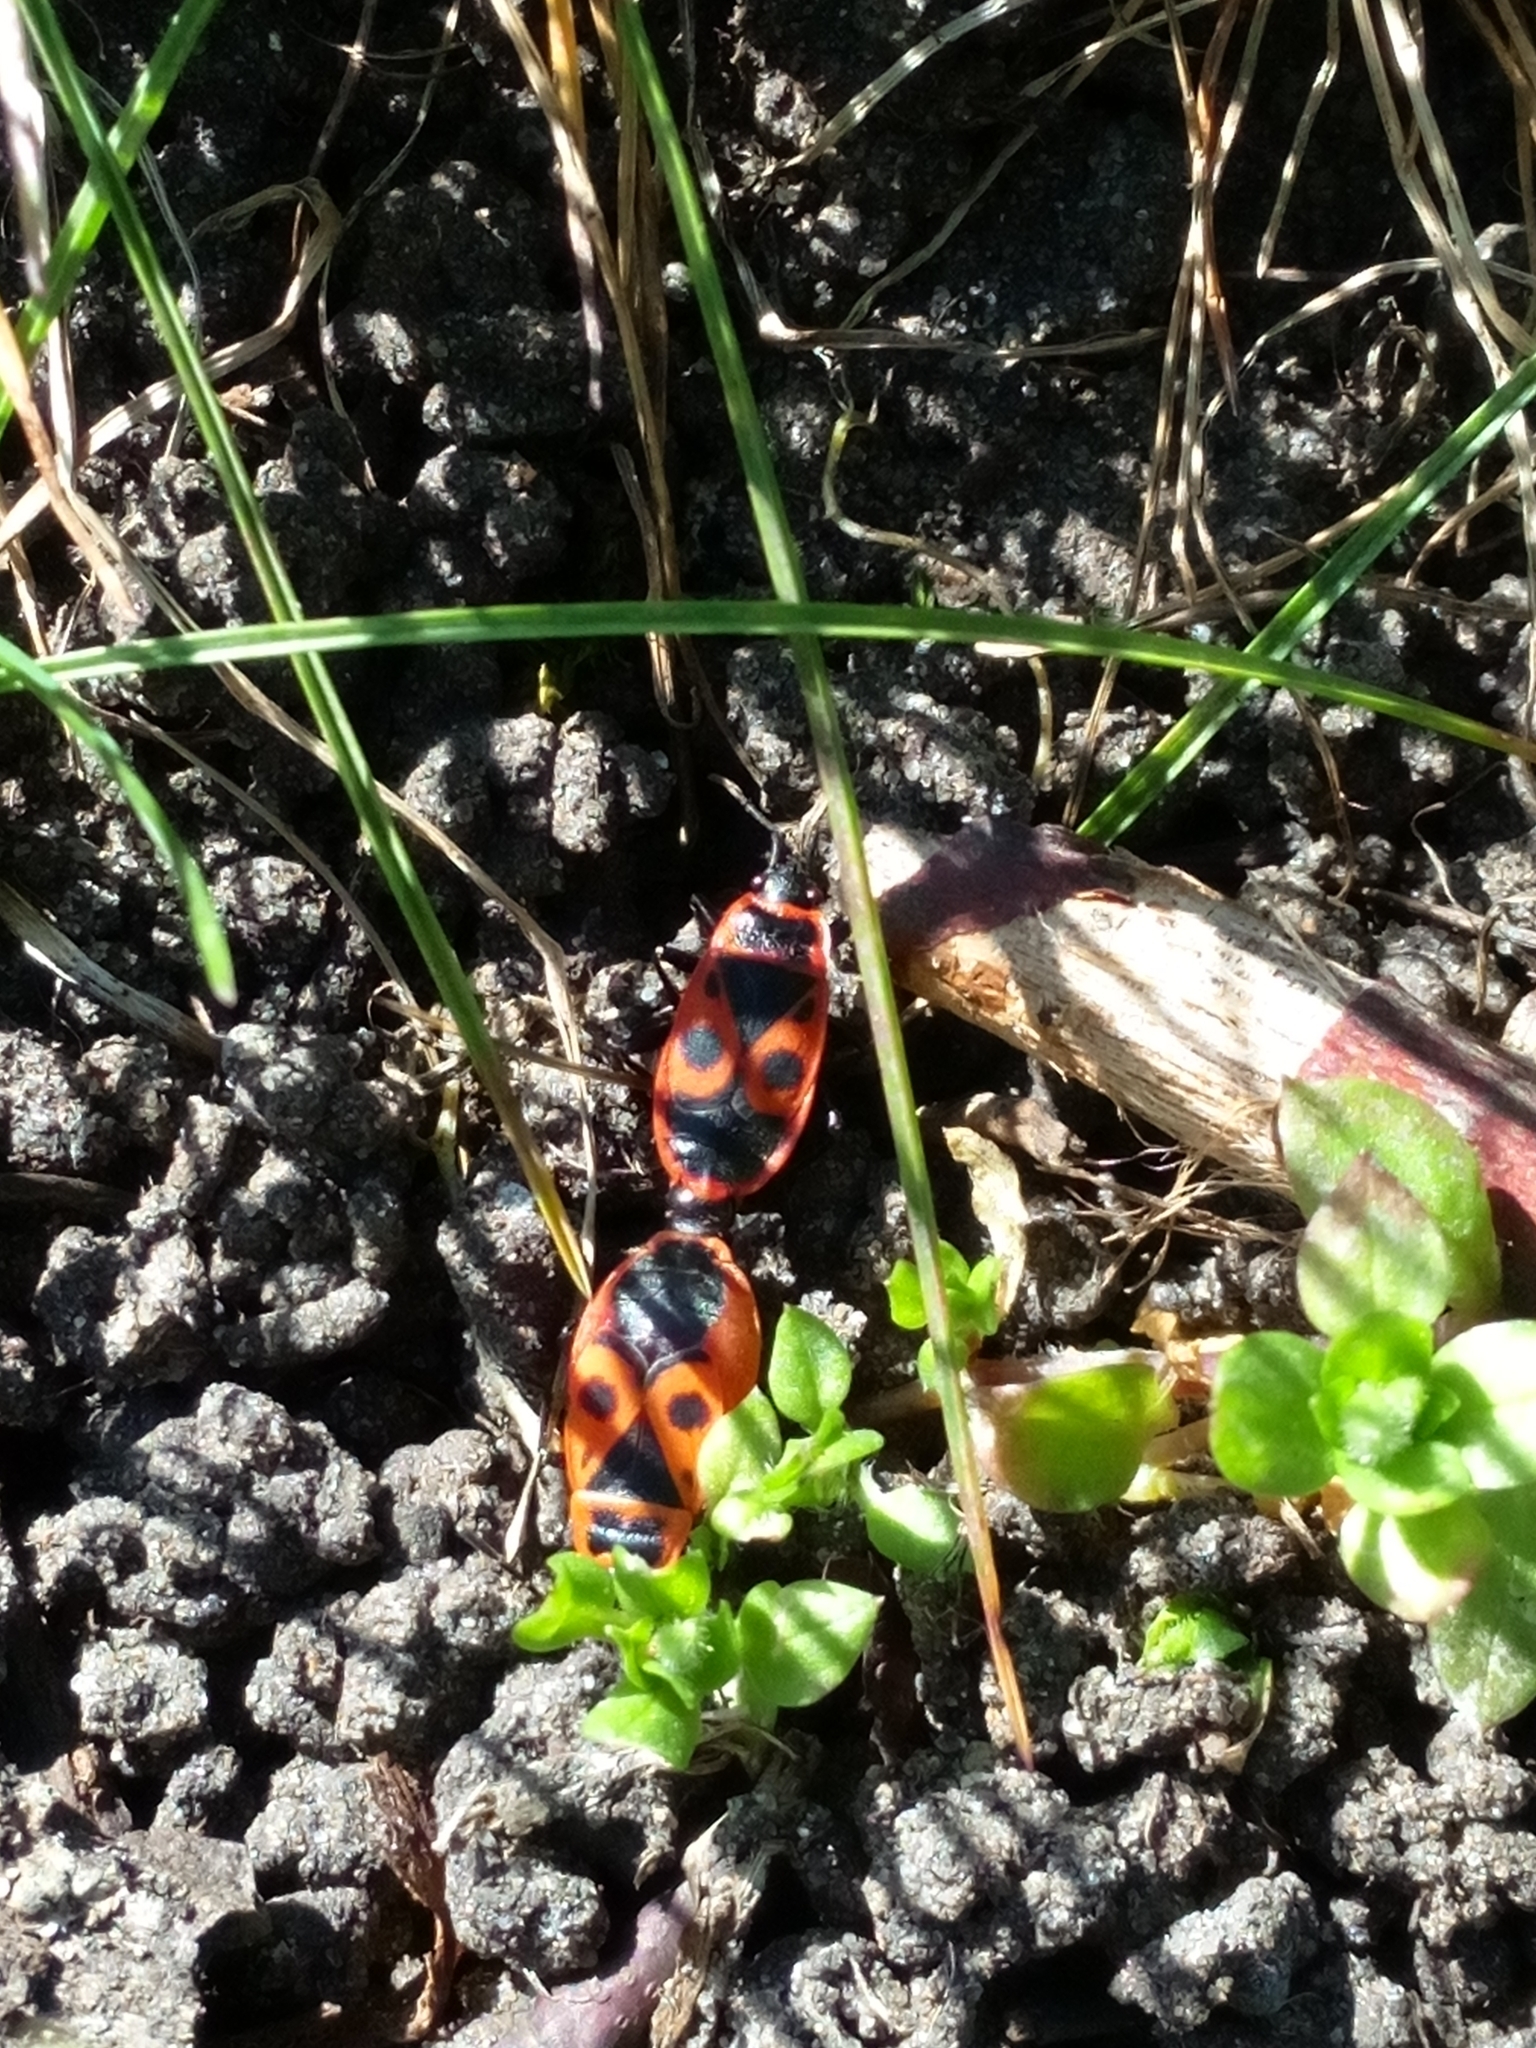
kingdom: Animalia
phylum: Arthropoda
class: Insecta
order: Hemiptera
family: Pyrrhocoridae
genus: Pyrrhocoris
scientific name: Pyrrhocoris apterus
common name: Firebug
